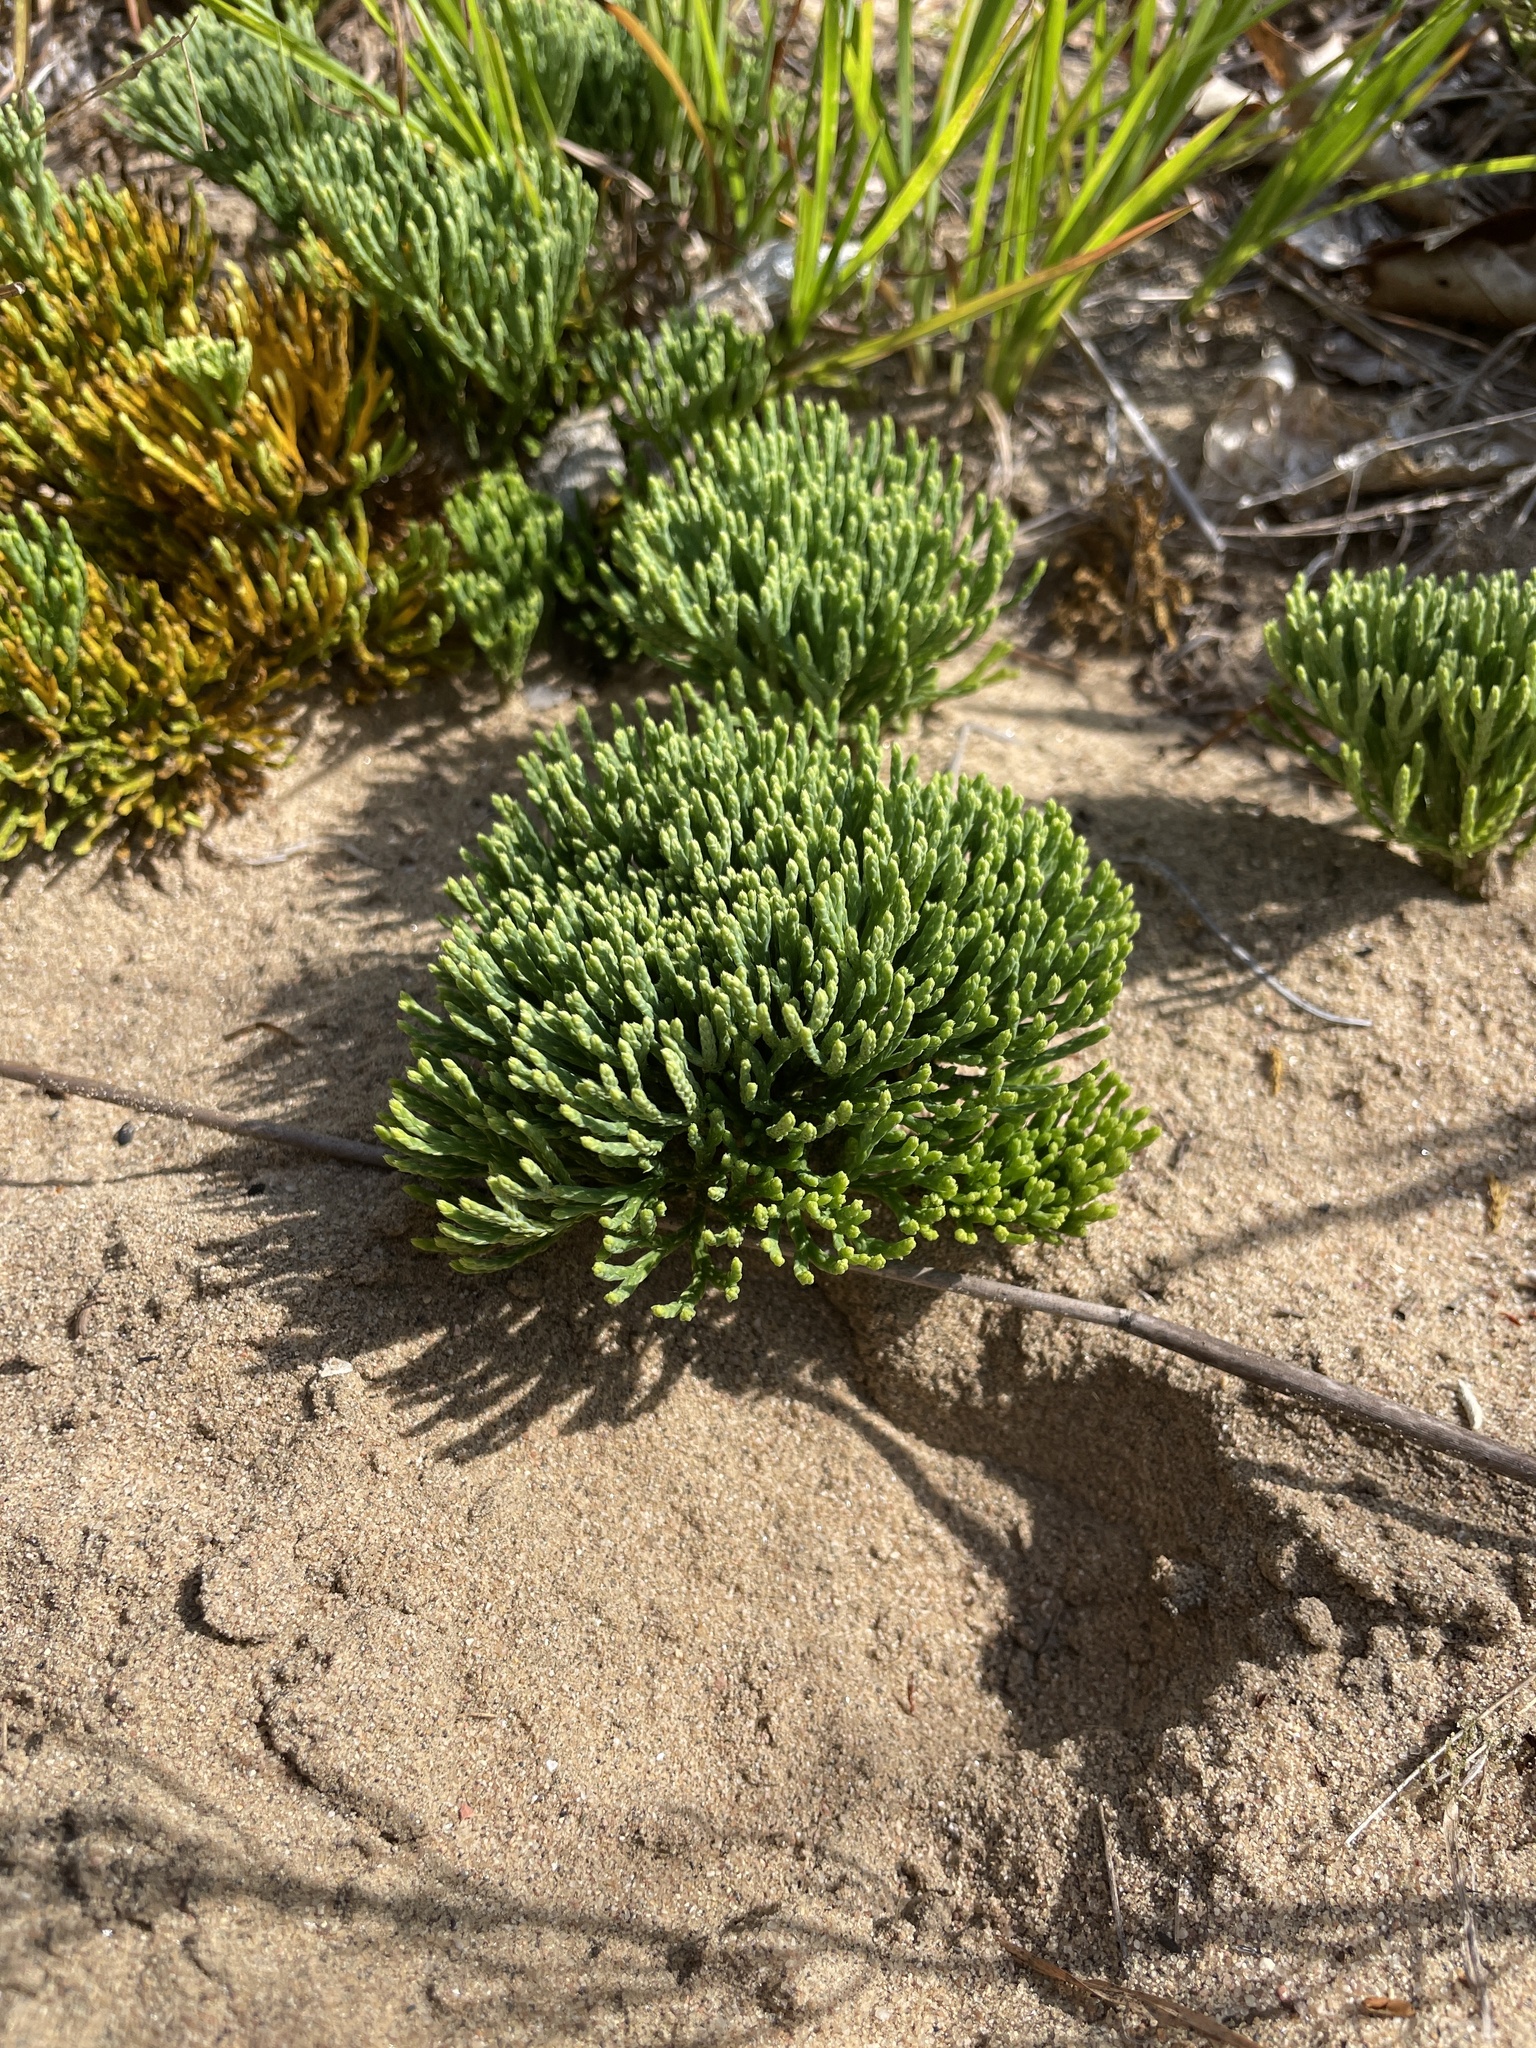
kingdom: Plantae
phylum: Tracheophyta
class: Lycopodiopsida
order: Lycopodiales
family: Lycopodiaceae
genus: Diphasiastrum
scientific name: Diphasiastrum tristachyum
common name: Blue ground-cedar
